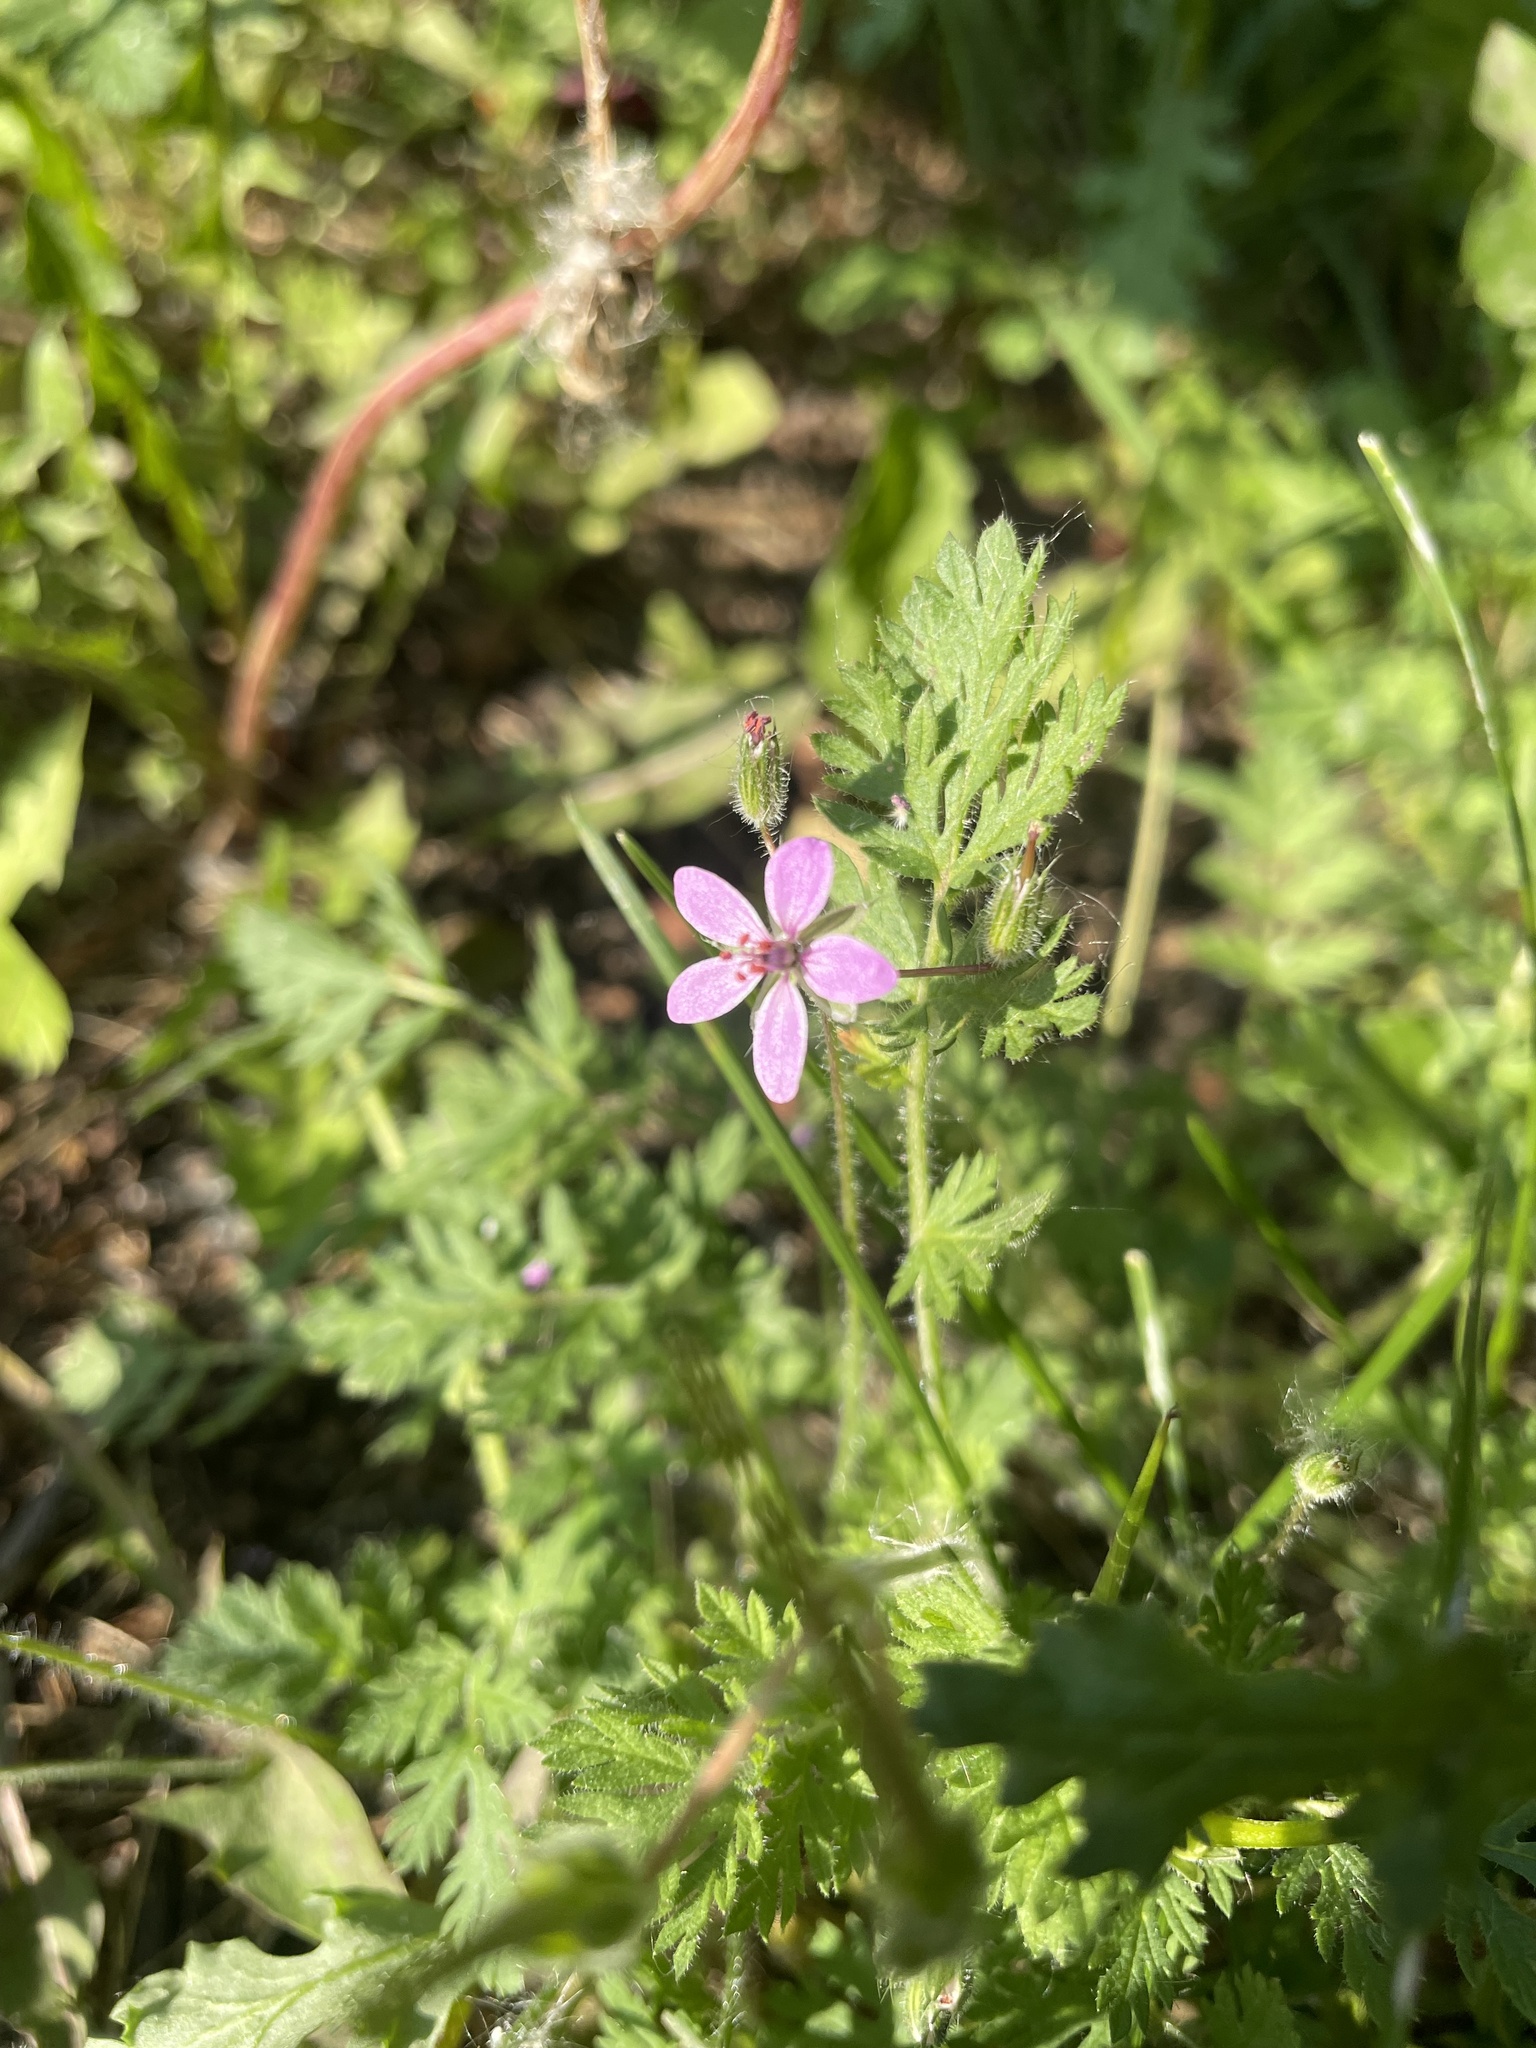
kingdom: Plantae
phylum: Tracheophyta
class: Magnoliopsida
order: Geraniales
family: Geraniaceae
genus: Erodium
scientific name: Erodium cicutarium
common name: Common stork's-bill
